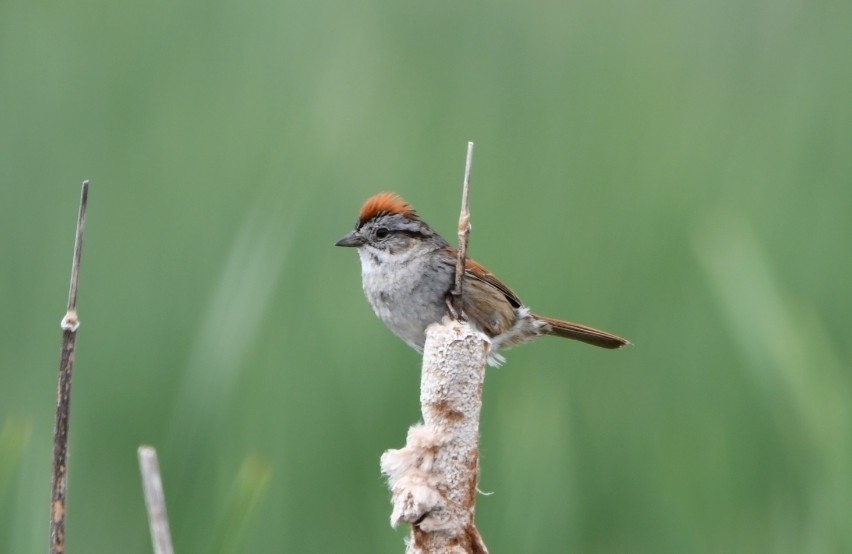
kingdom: Animalia
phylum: Chordata
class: Aves
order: Passeriformes
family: Passerellidae
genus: Spizella
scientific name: Spizella passerina
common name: Chipping sparrow
